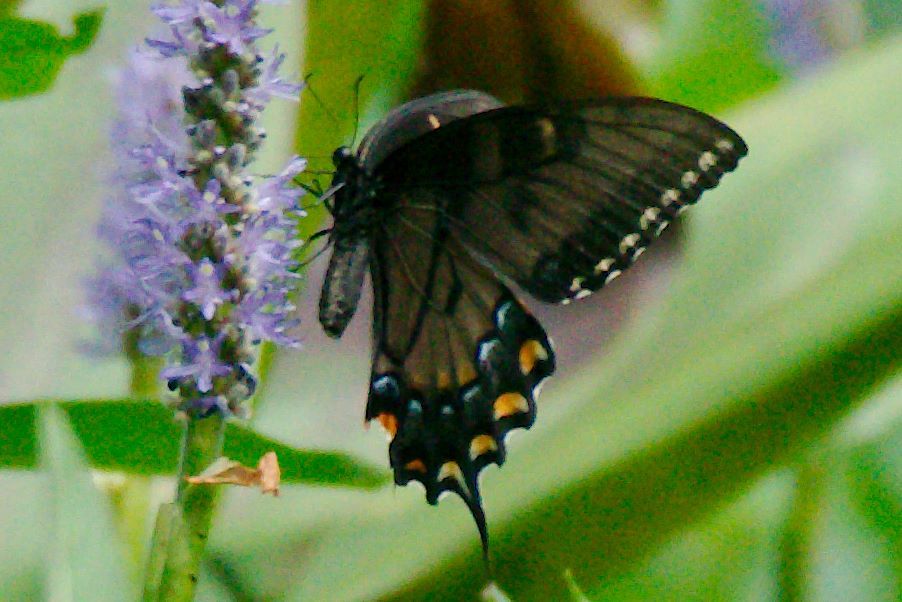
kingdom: Animalia
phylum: Arthropoda
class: Insecta
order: Lepidoptera
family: Papilionidae
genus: Papilio
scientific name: Papilio glaucus
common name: Tiger swallowtail
